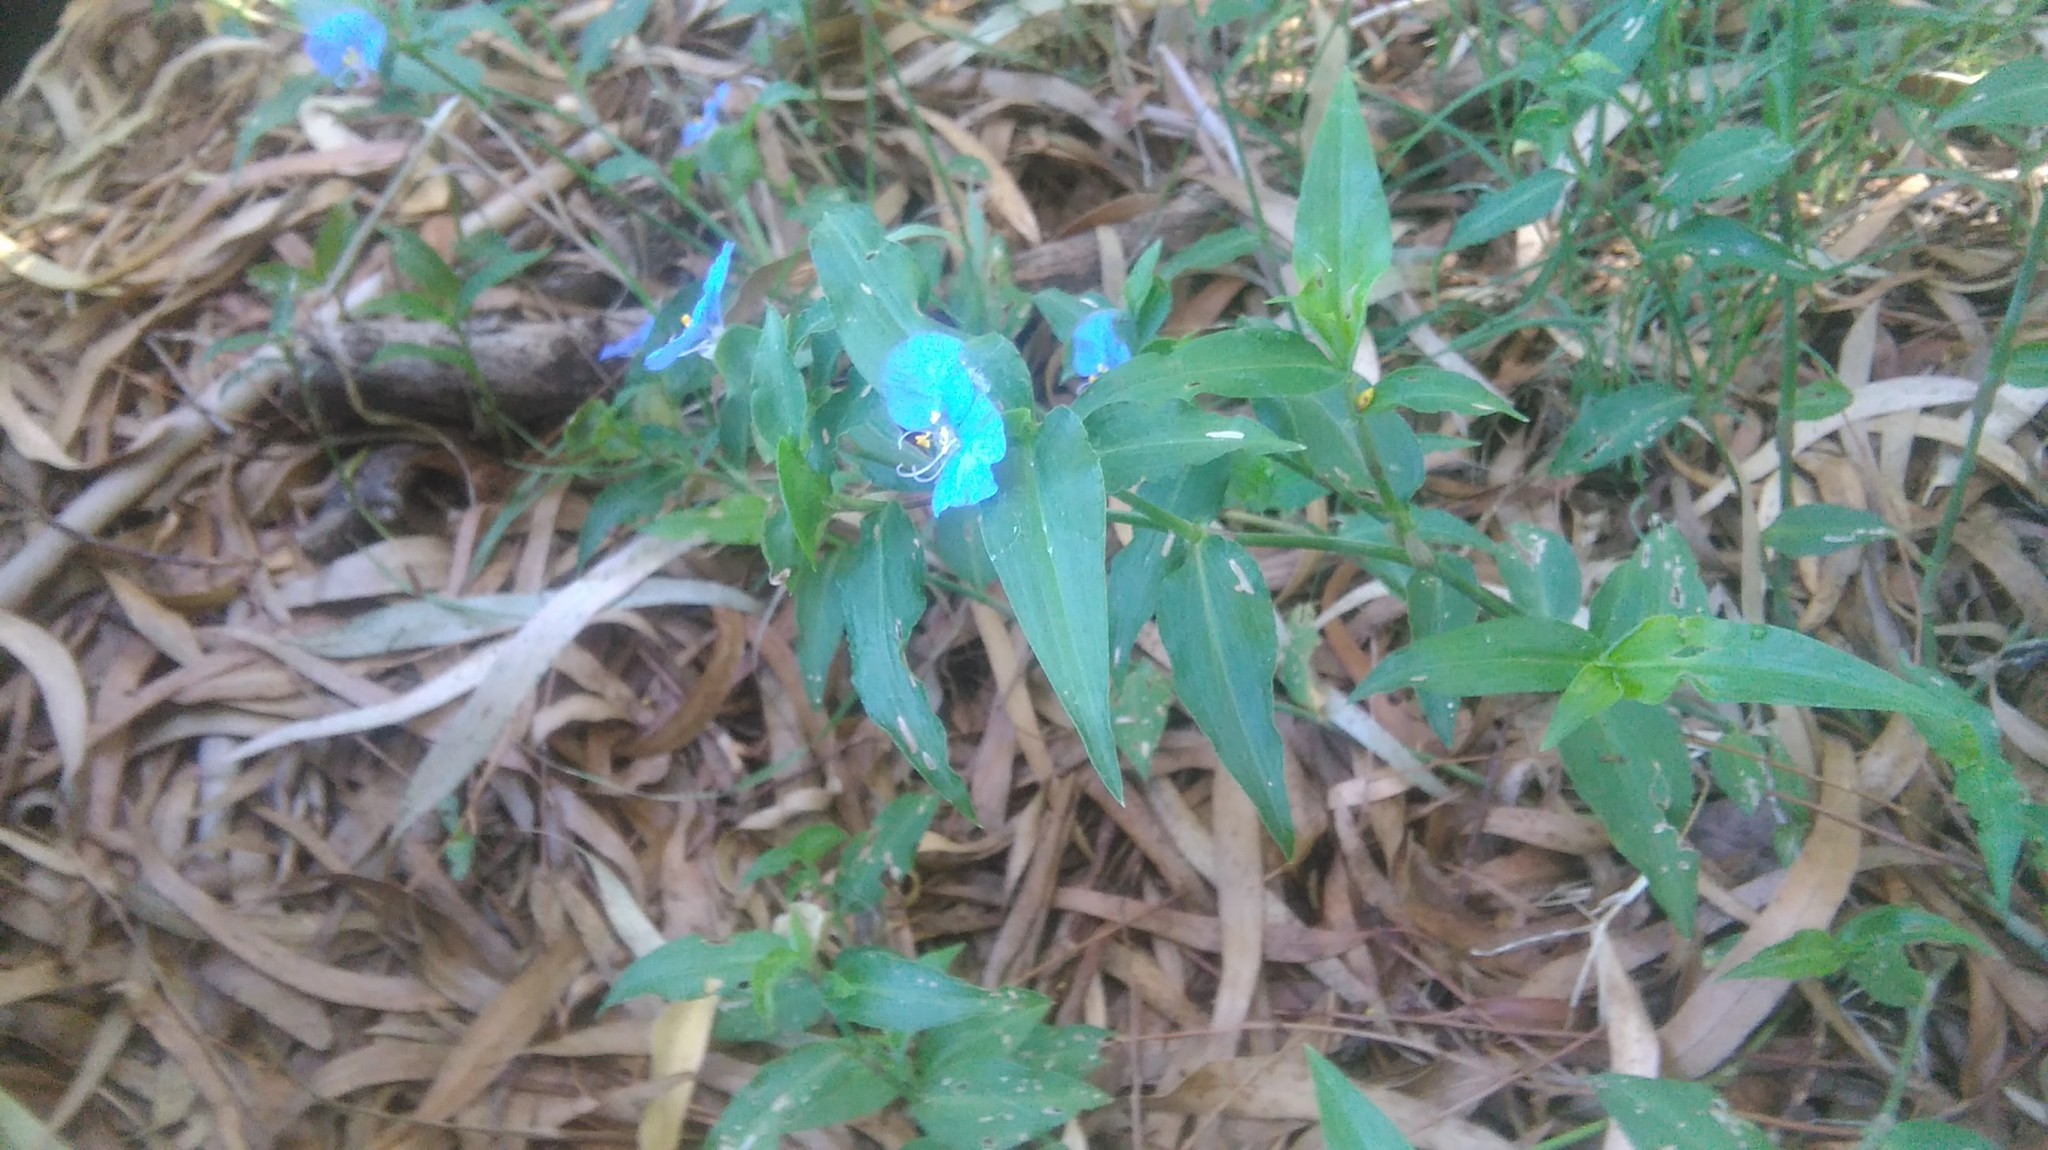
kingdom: Plantae
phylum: Tracheophyta
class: Liliopsida
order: Commelinales
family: Commelinaceae
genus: Commelina
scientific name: Commelina erecta
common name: Blousel blommetjie
